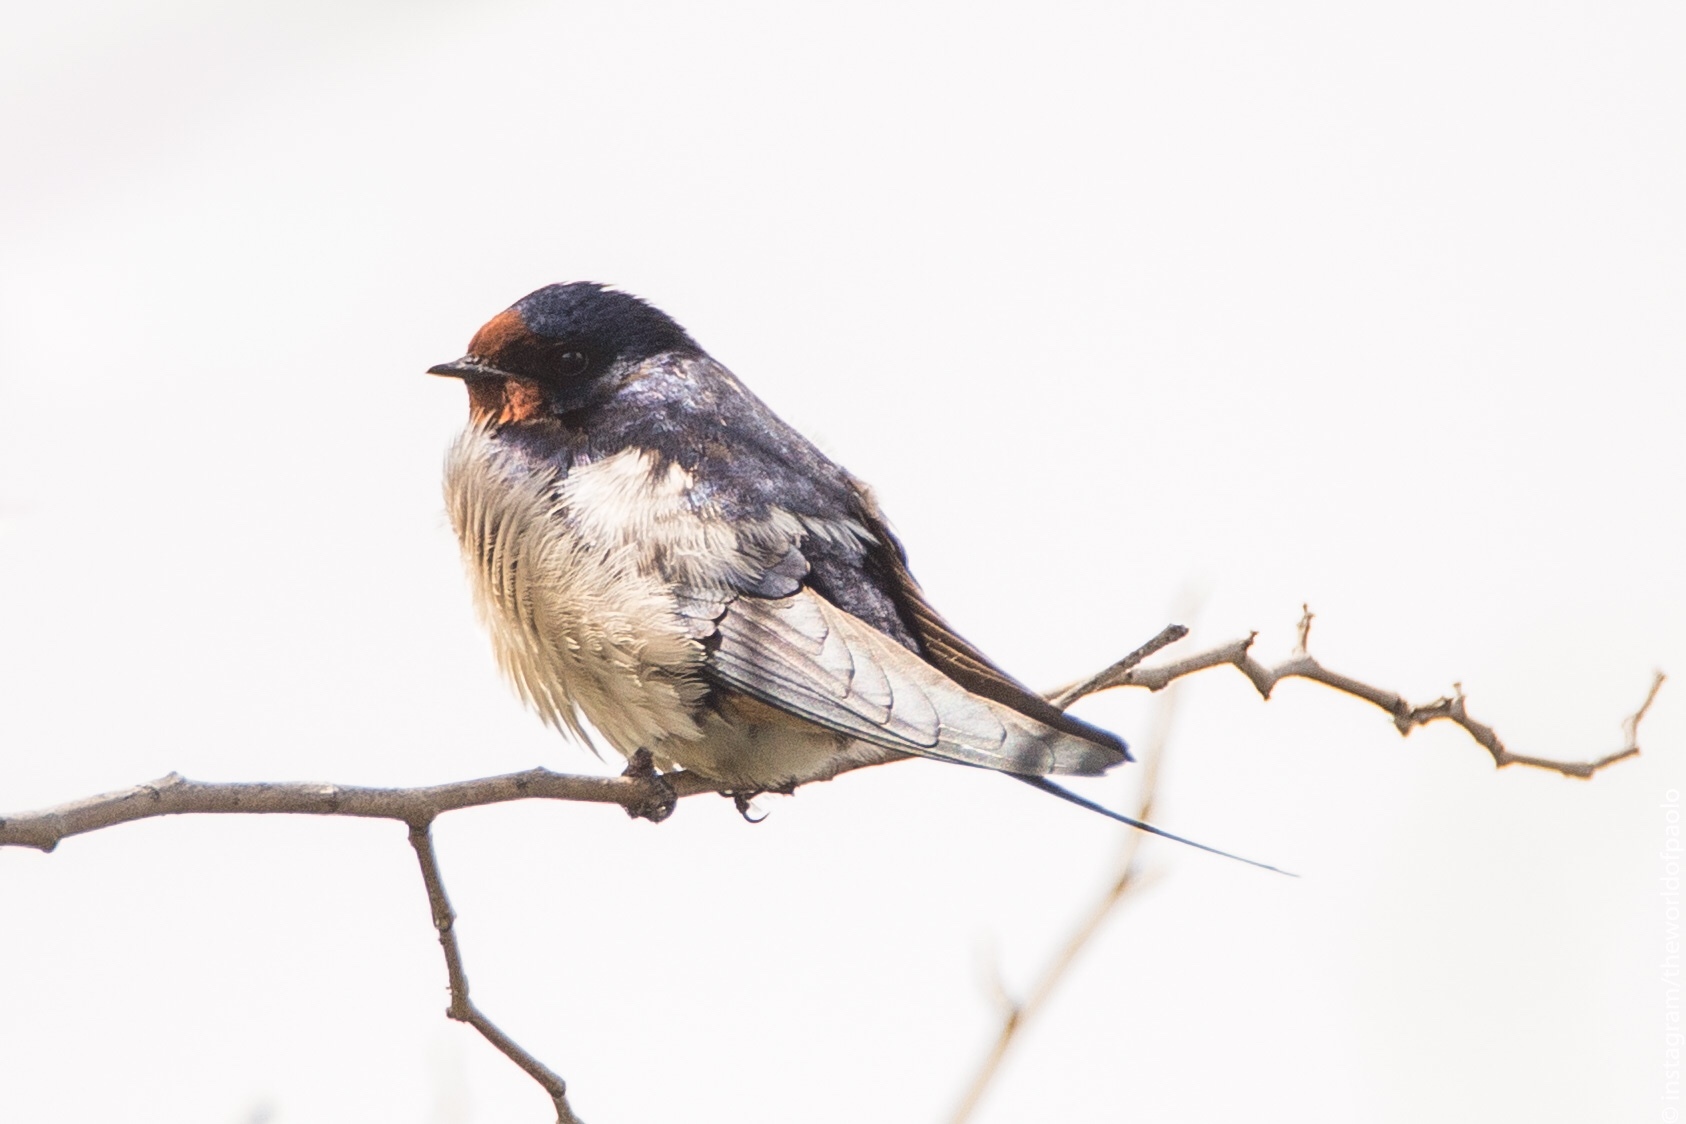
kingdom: Animalia
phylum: Chordata
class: Aves
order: Passeriformes
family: Hirundinidae
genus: Hirundo
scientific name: Hirundo rustica
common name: Barn swallow
